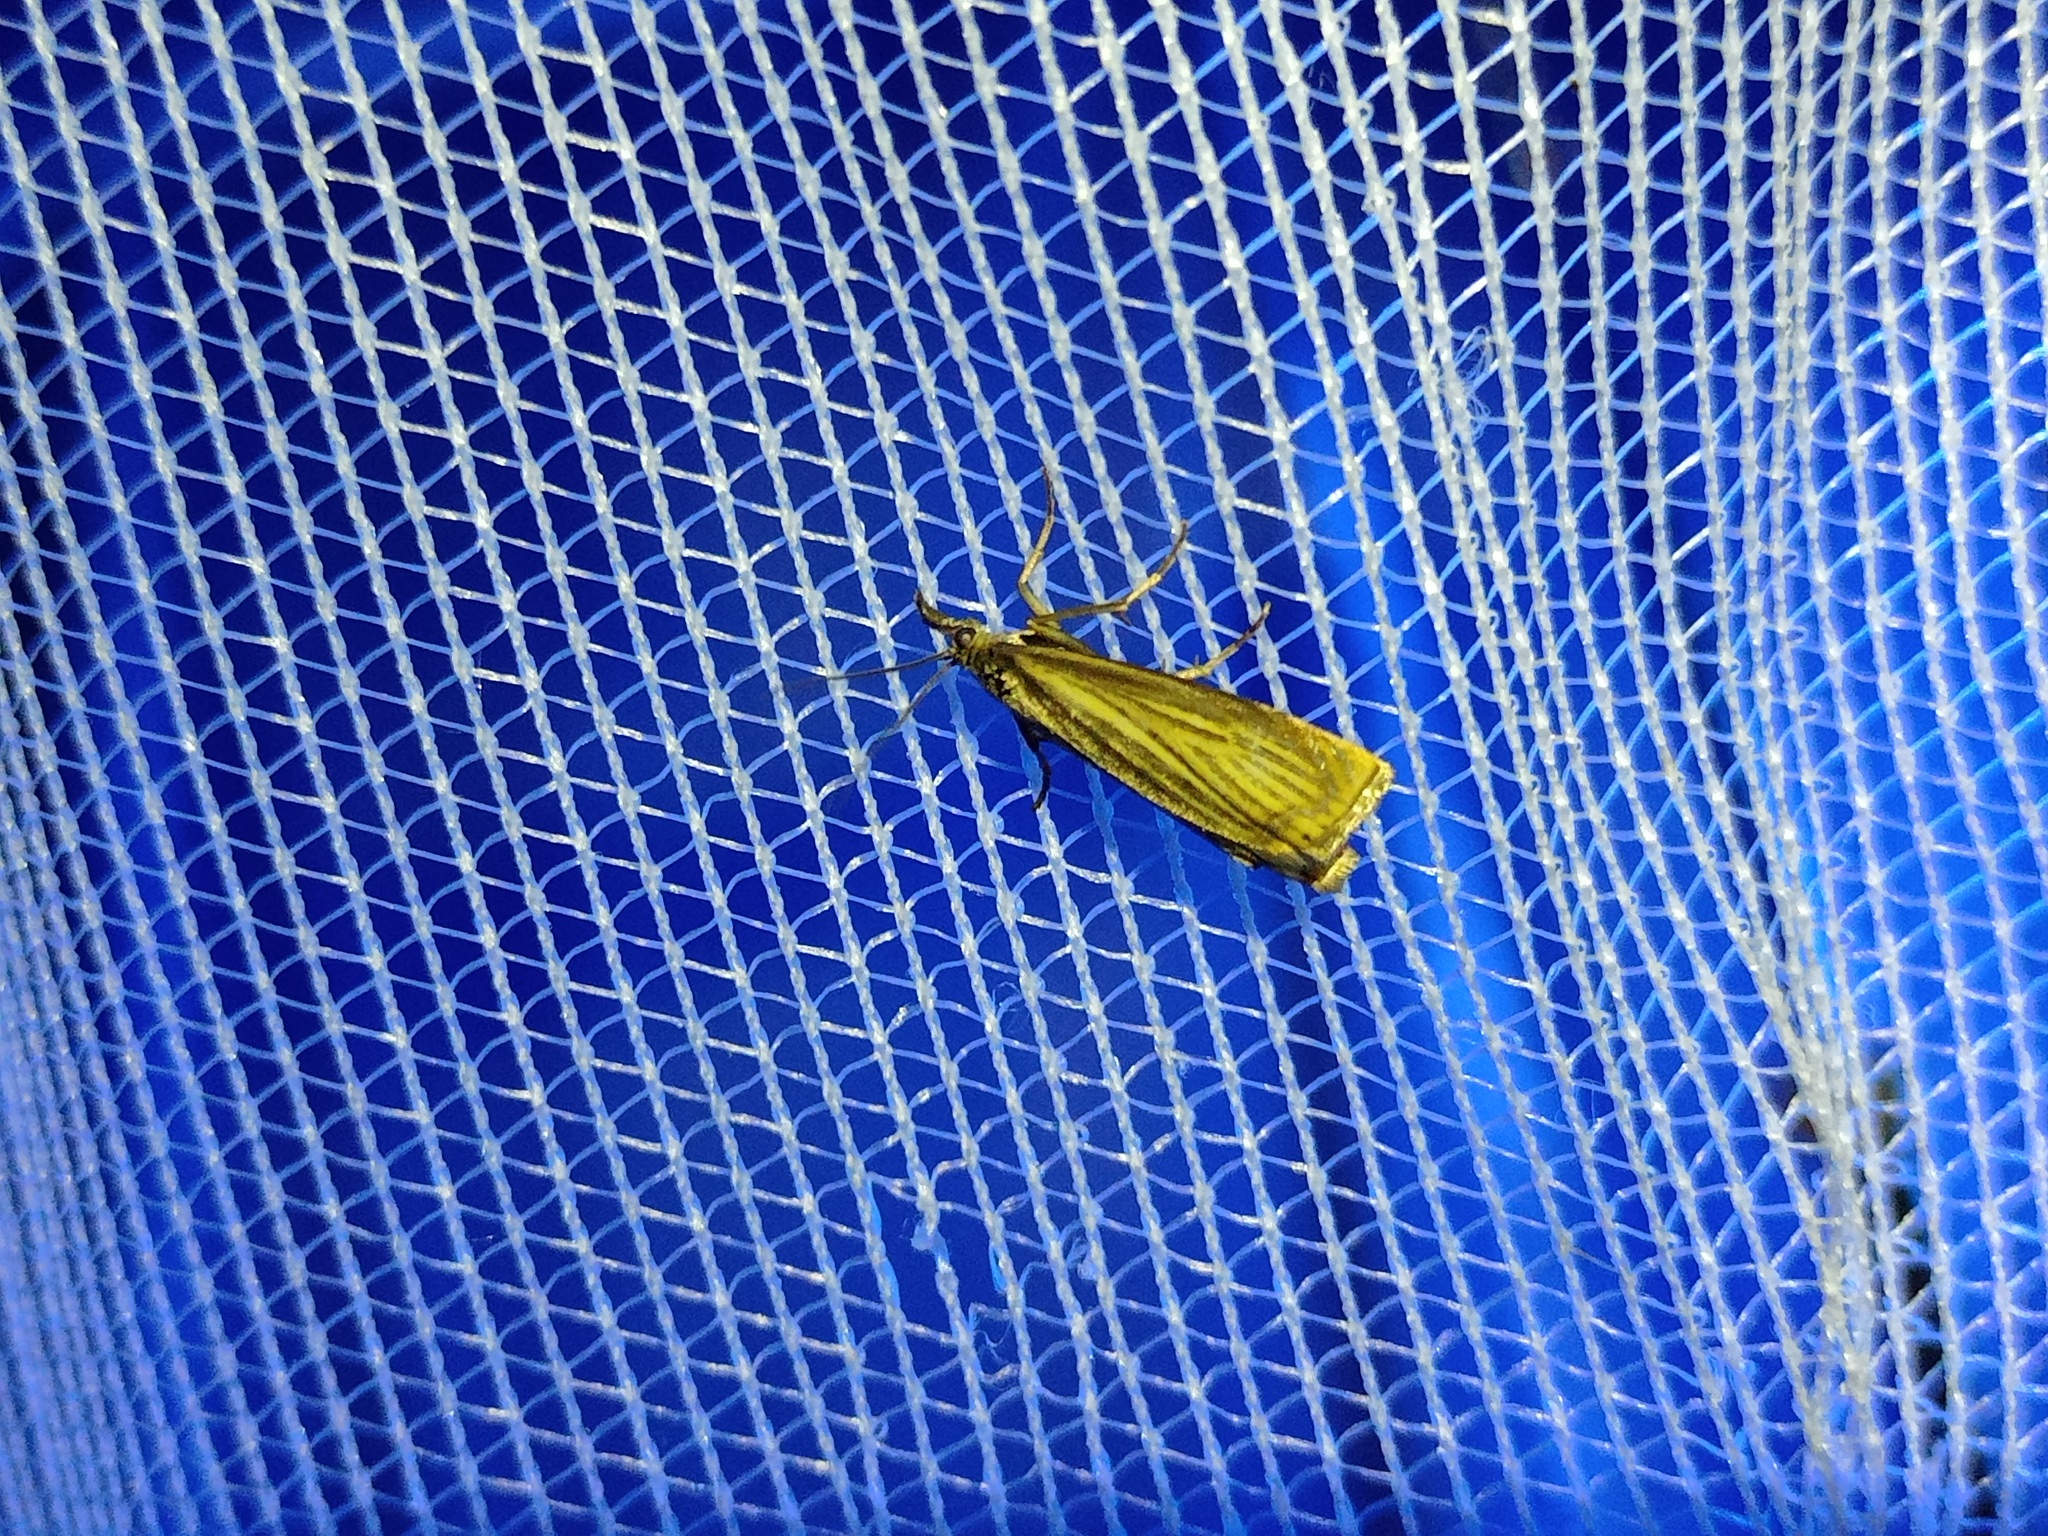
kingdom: Animalia
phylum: Arthropoda
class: Insecta
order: Lepidoptera
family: Crambidae
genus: Chrysoteuchia
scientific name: Chrysoteuchia culmella
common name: Garden grass-veneer
